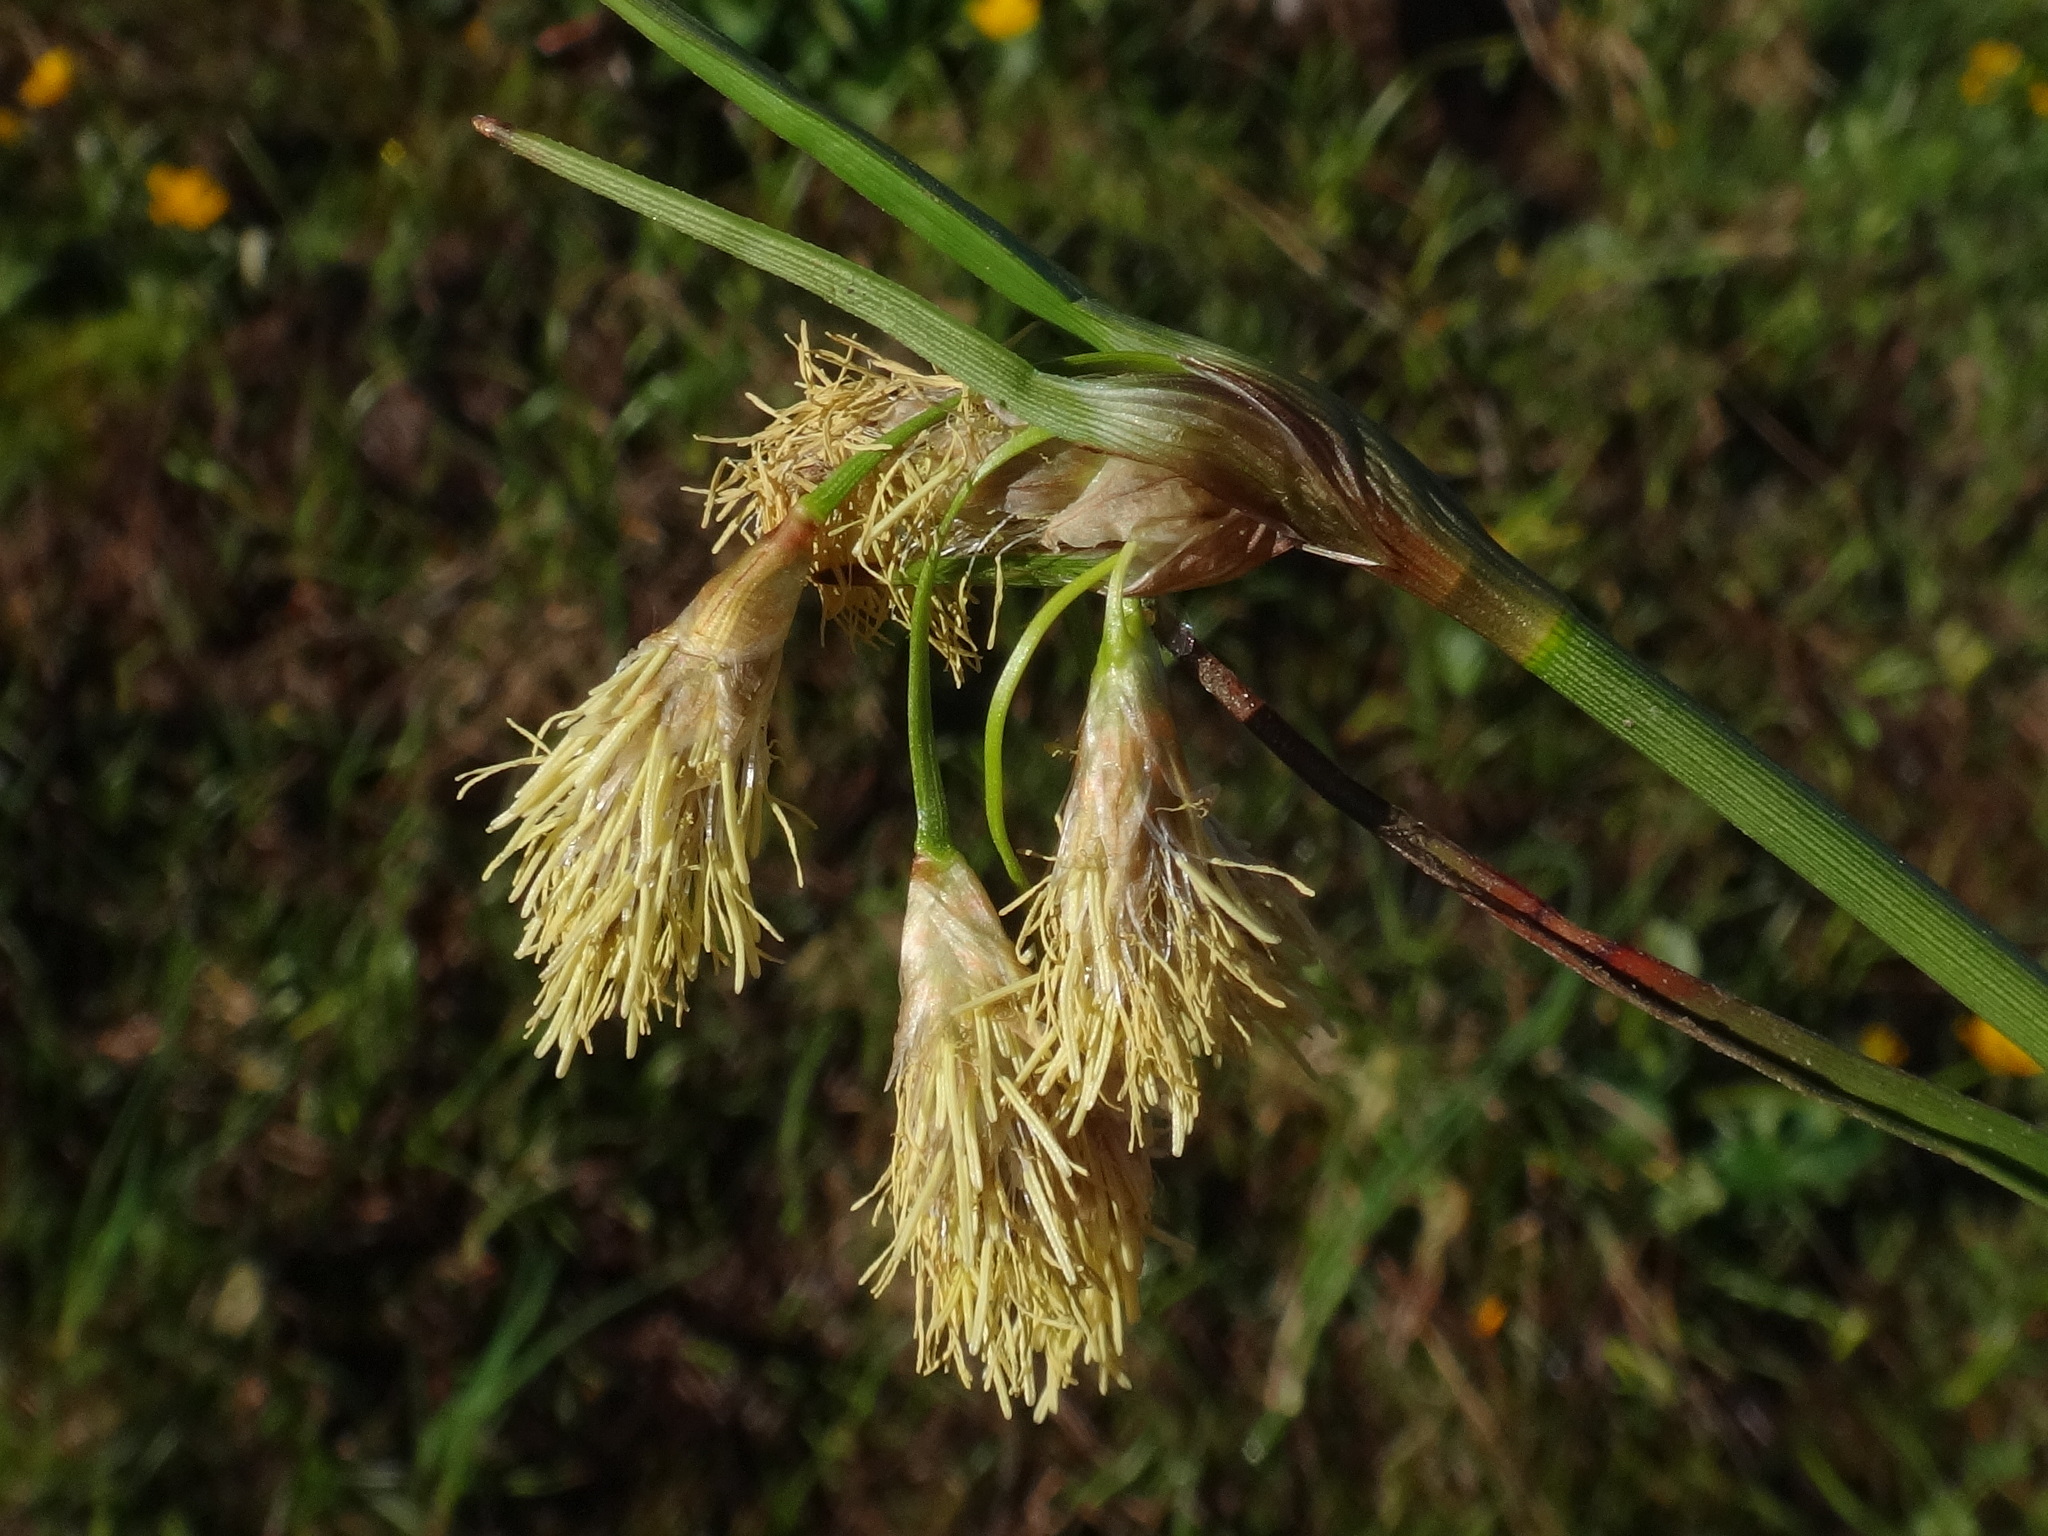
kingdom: Plantae
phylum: Tracheophyta
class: Liliopsida
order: Poales
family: Cyperaceae
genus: Eriophorum
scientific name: Eriophorum angustifolium
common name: Common cottongrass
